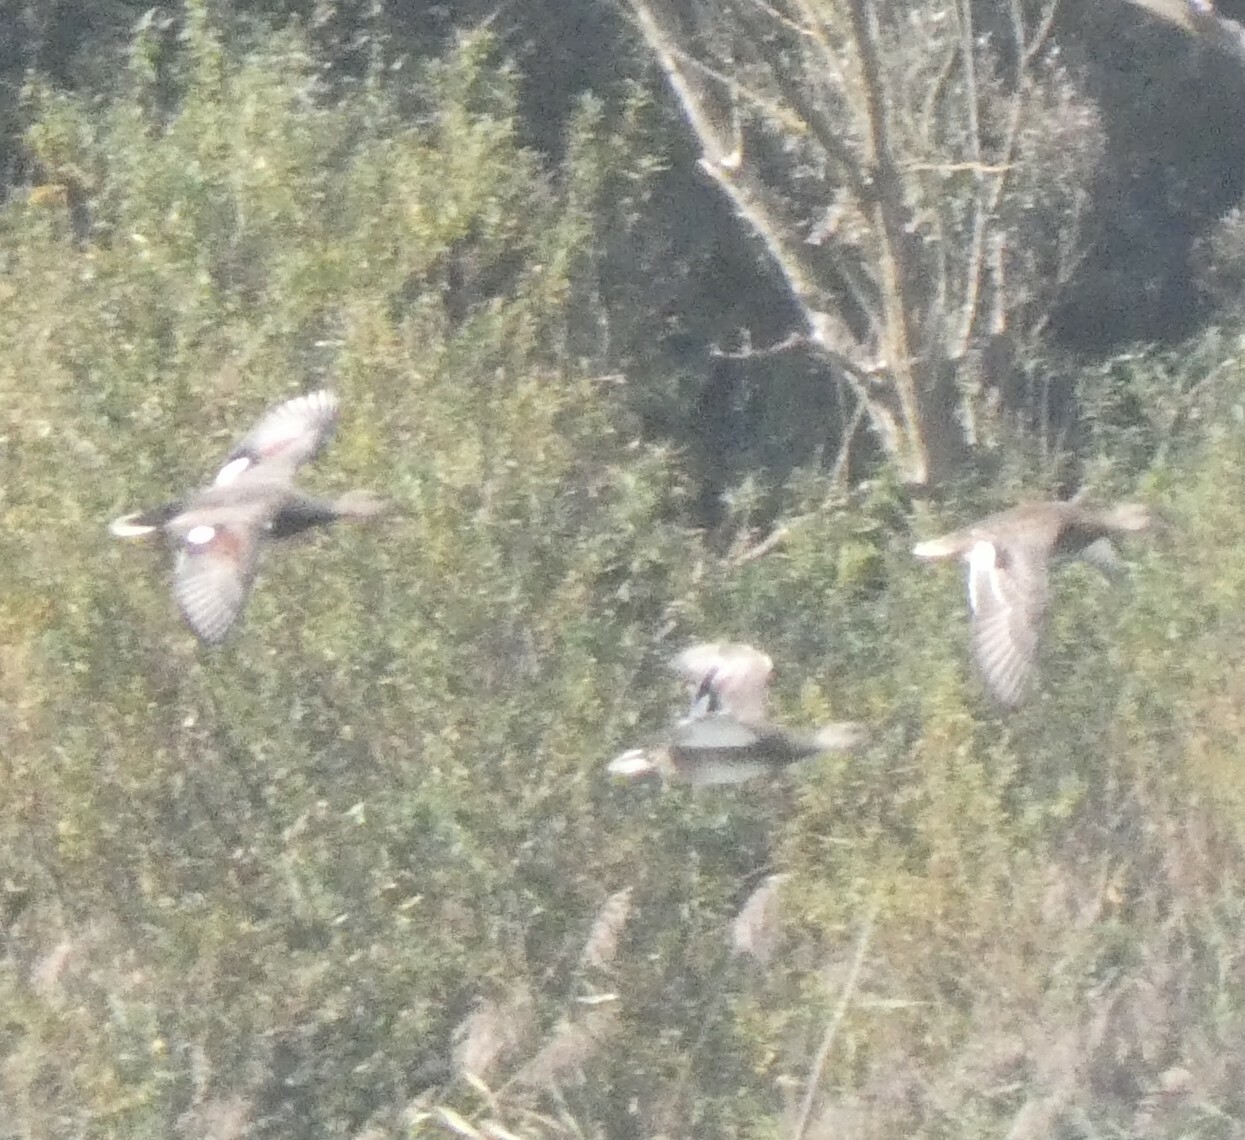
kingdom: Animalia
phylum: Chordata
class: Aves
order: Anseriformes
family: Anatidae
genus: Mareca
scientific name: Mareca strepera
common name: Gadwall
